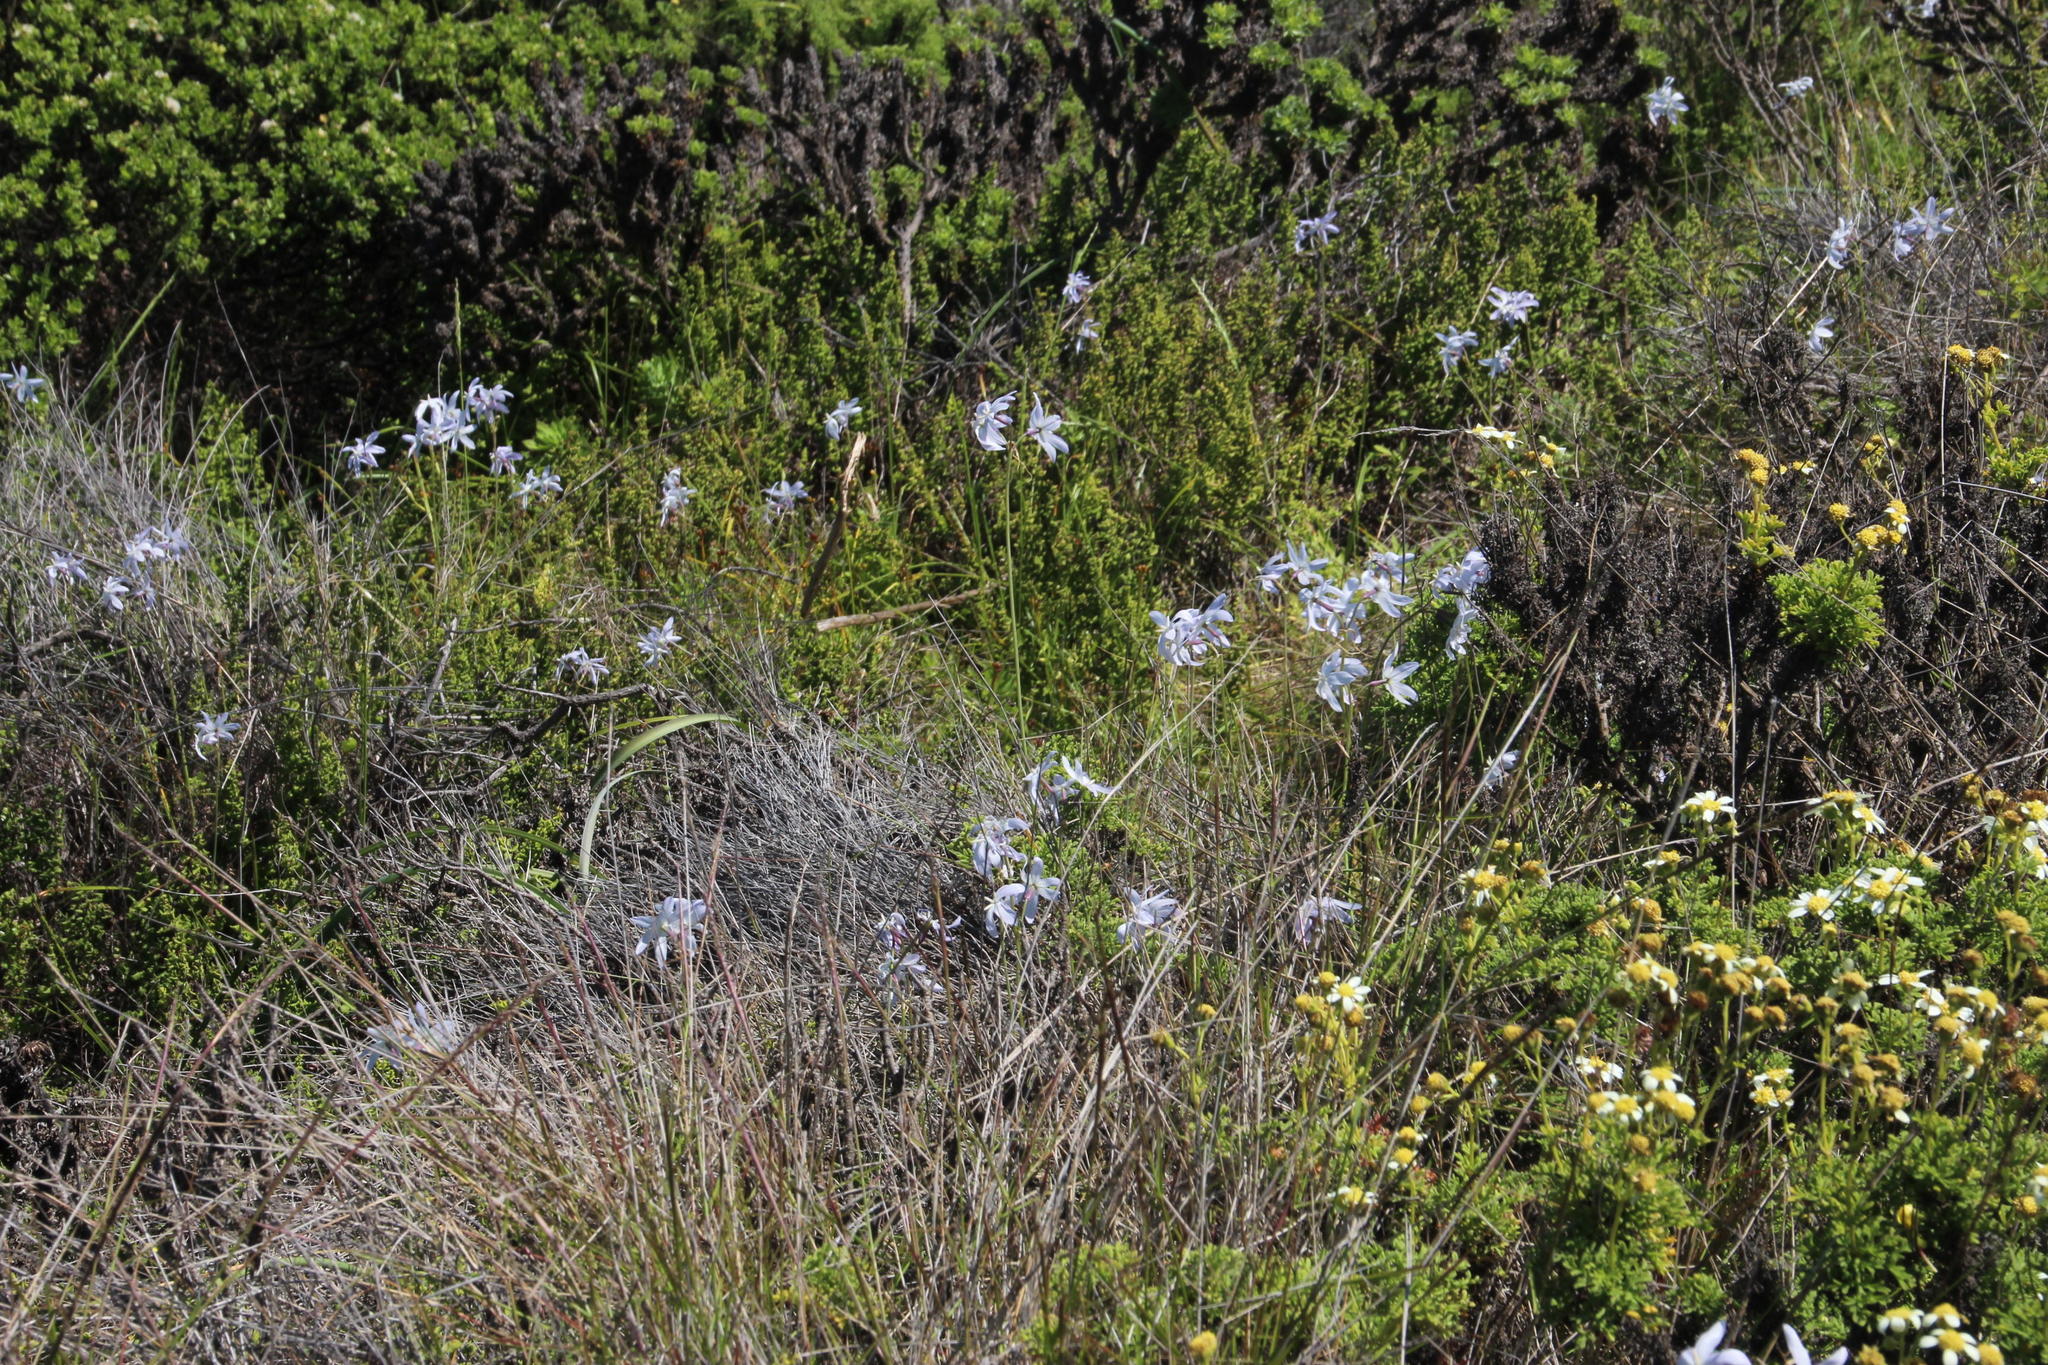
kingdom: Plantae
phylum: Tracheophyta
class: Liliopsida
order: Asparagales
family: Amaryllidaceae
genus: Leucocoryne
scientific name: Leucocoryne ixioides
